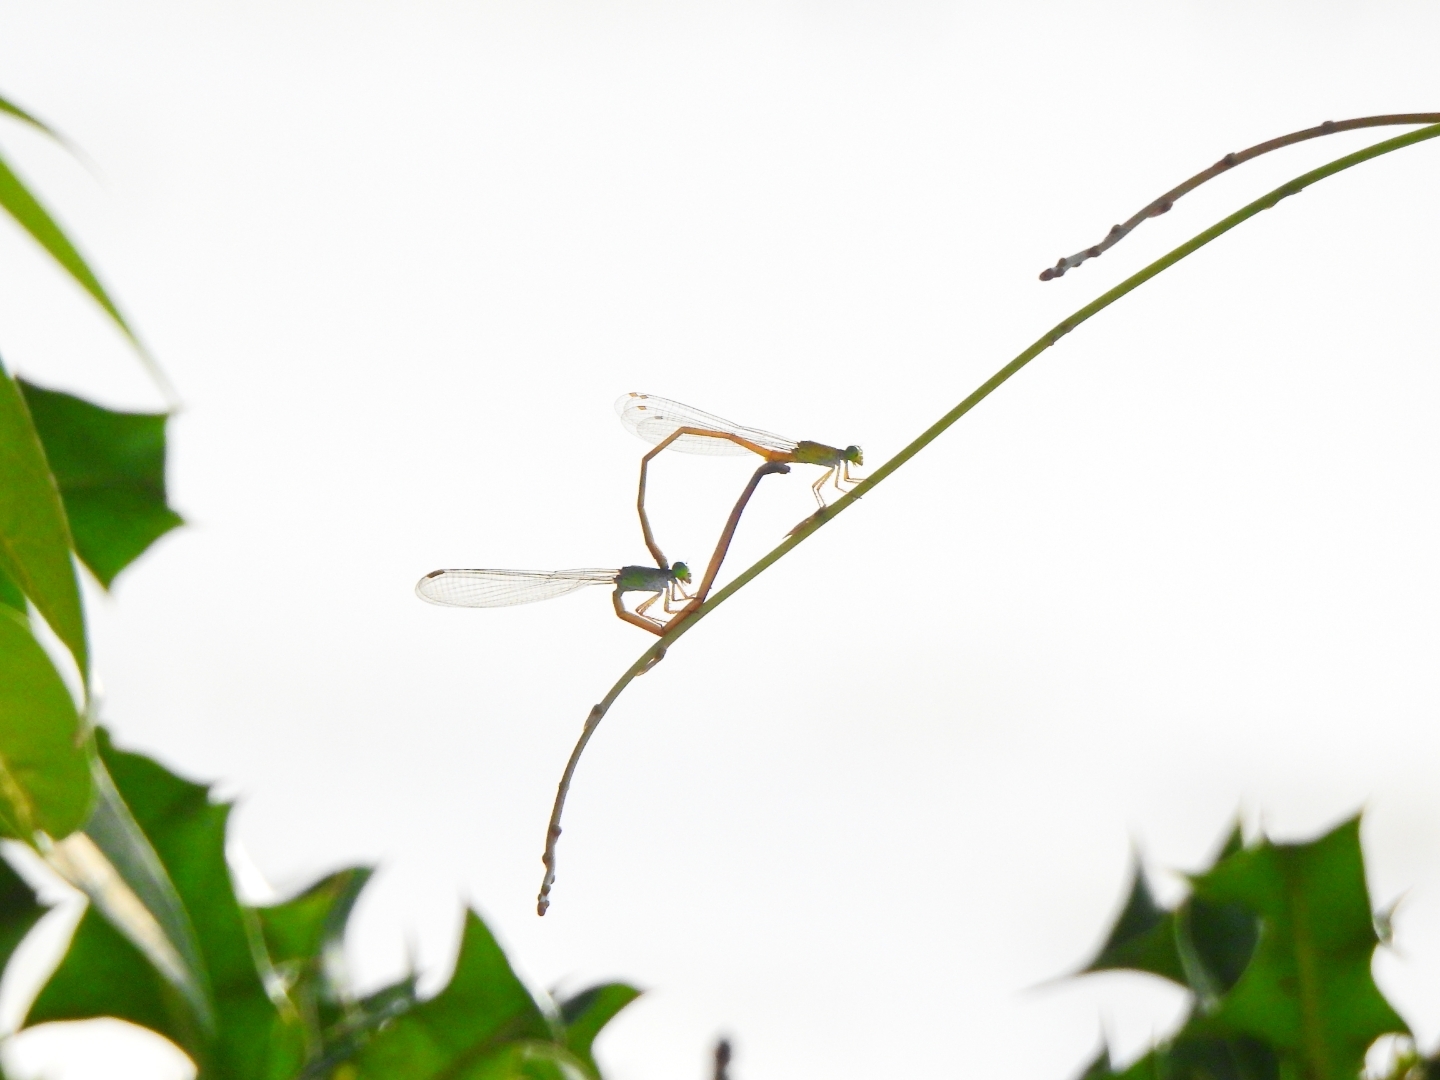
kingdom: Animalia
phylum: Arthropoda
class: Insecta
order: Odonata
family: Coenagrionidae
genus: Ceriagrion
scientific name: Ceriagrion rubiae
